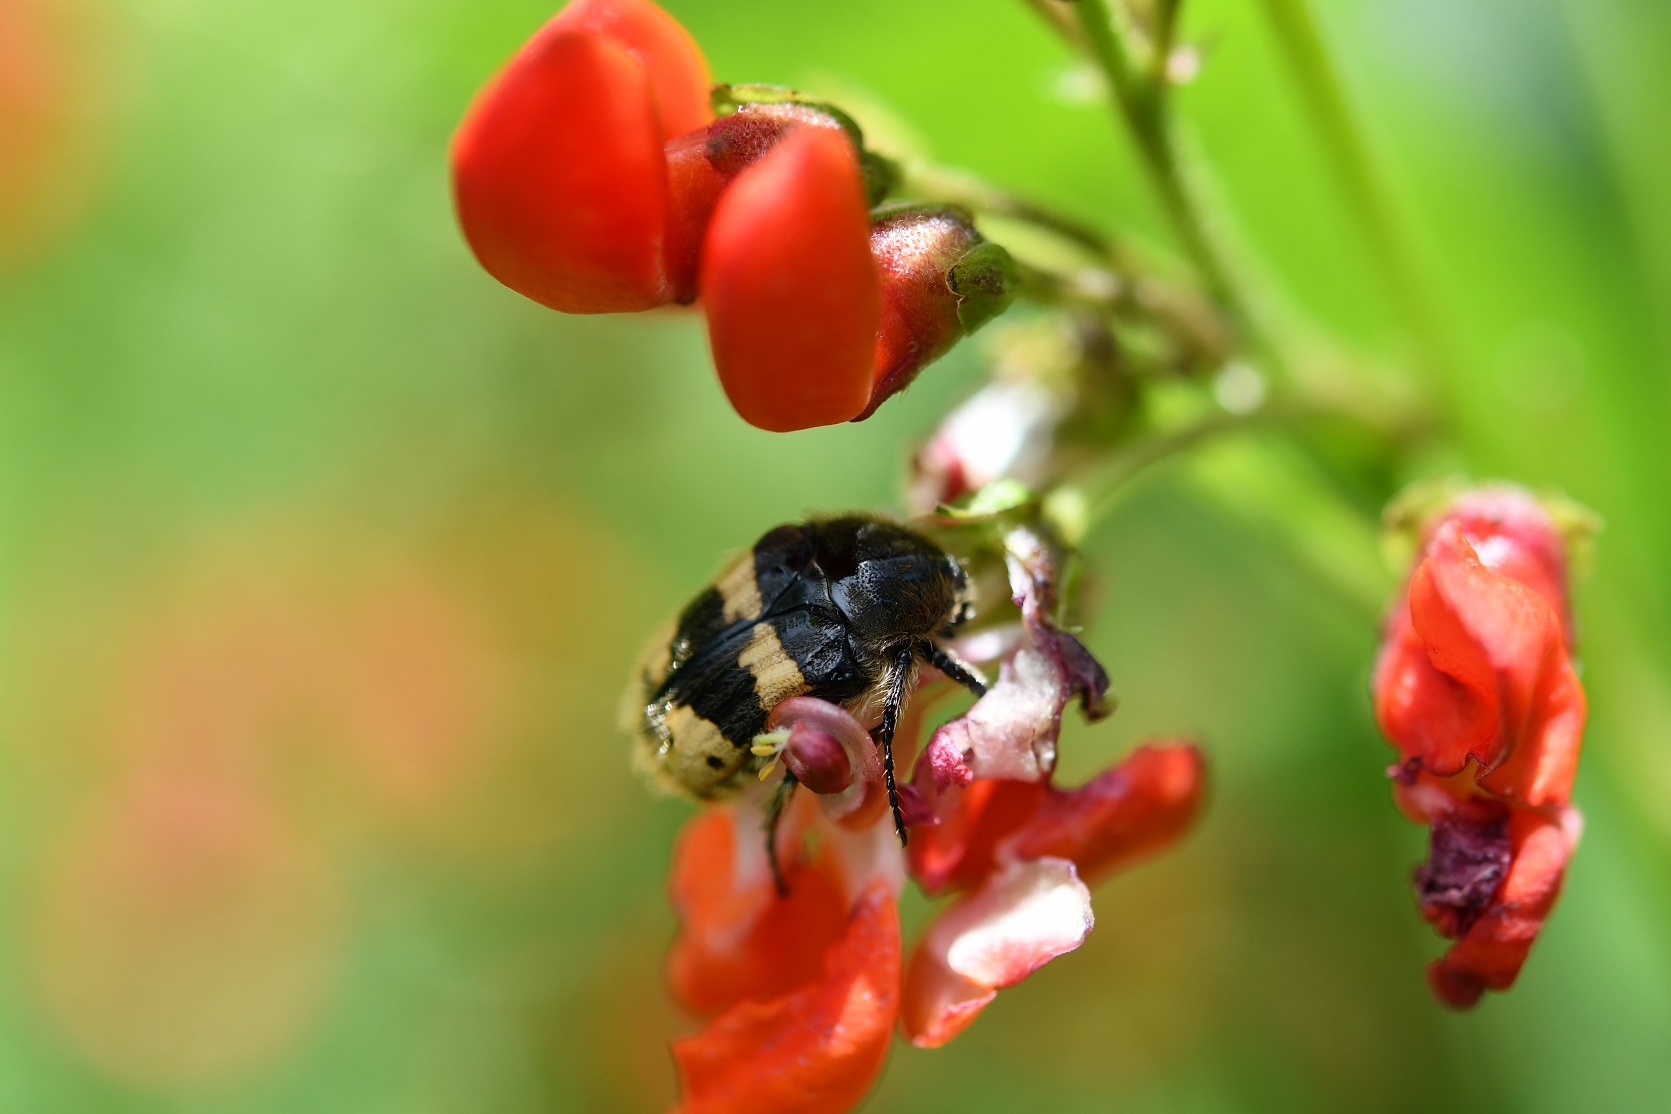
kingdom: Animalia
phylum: Arthropoda
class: Insecta
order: Coleoptera
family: Scarabaeidae
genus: Euphoria
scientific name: Euphoria basalis
